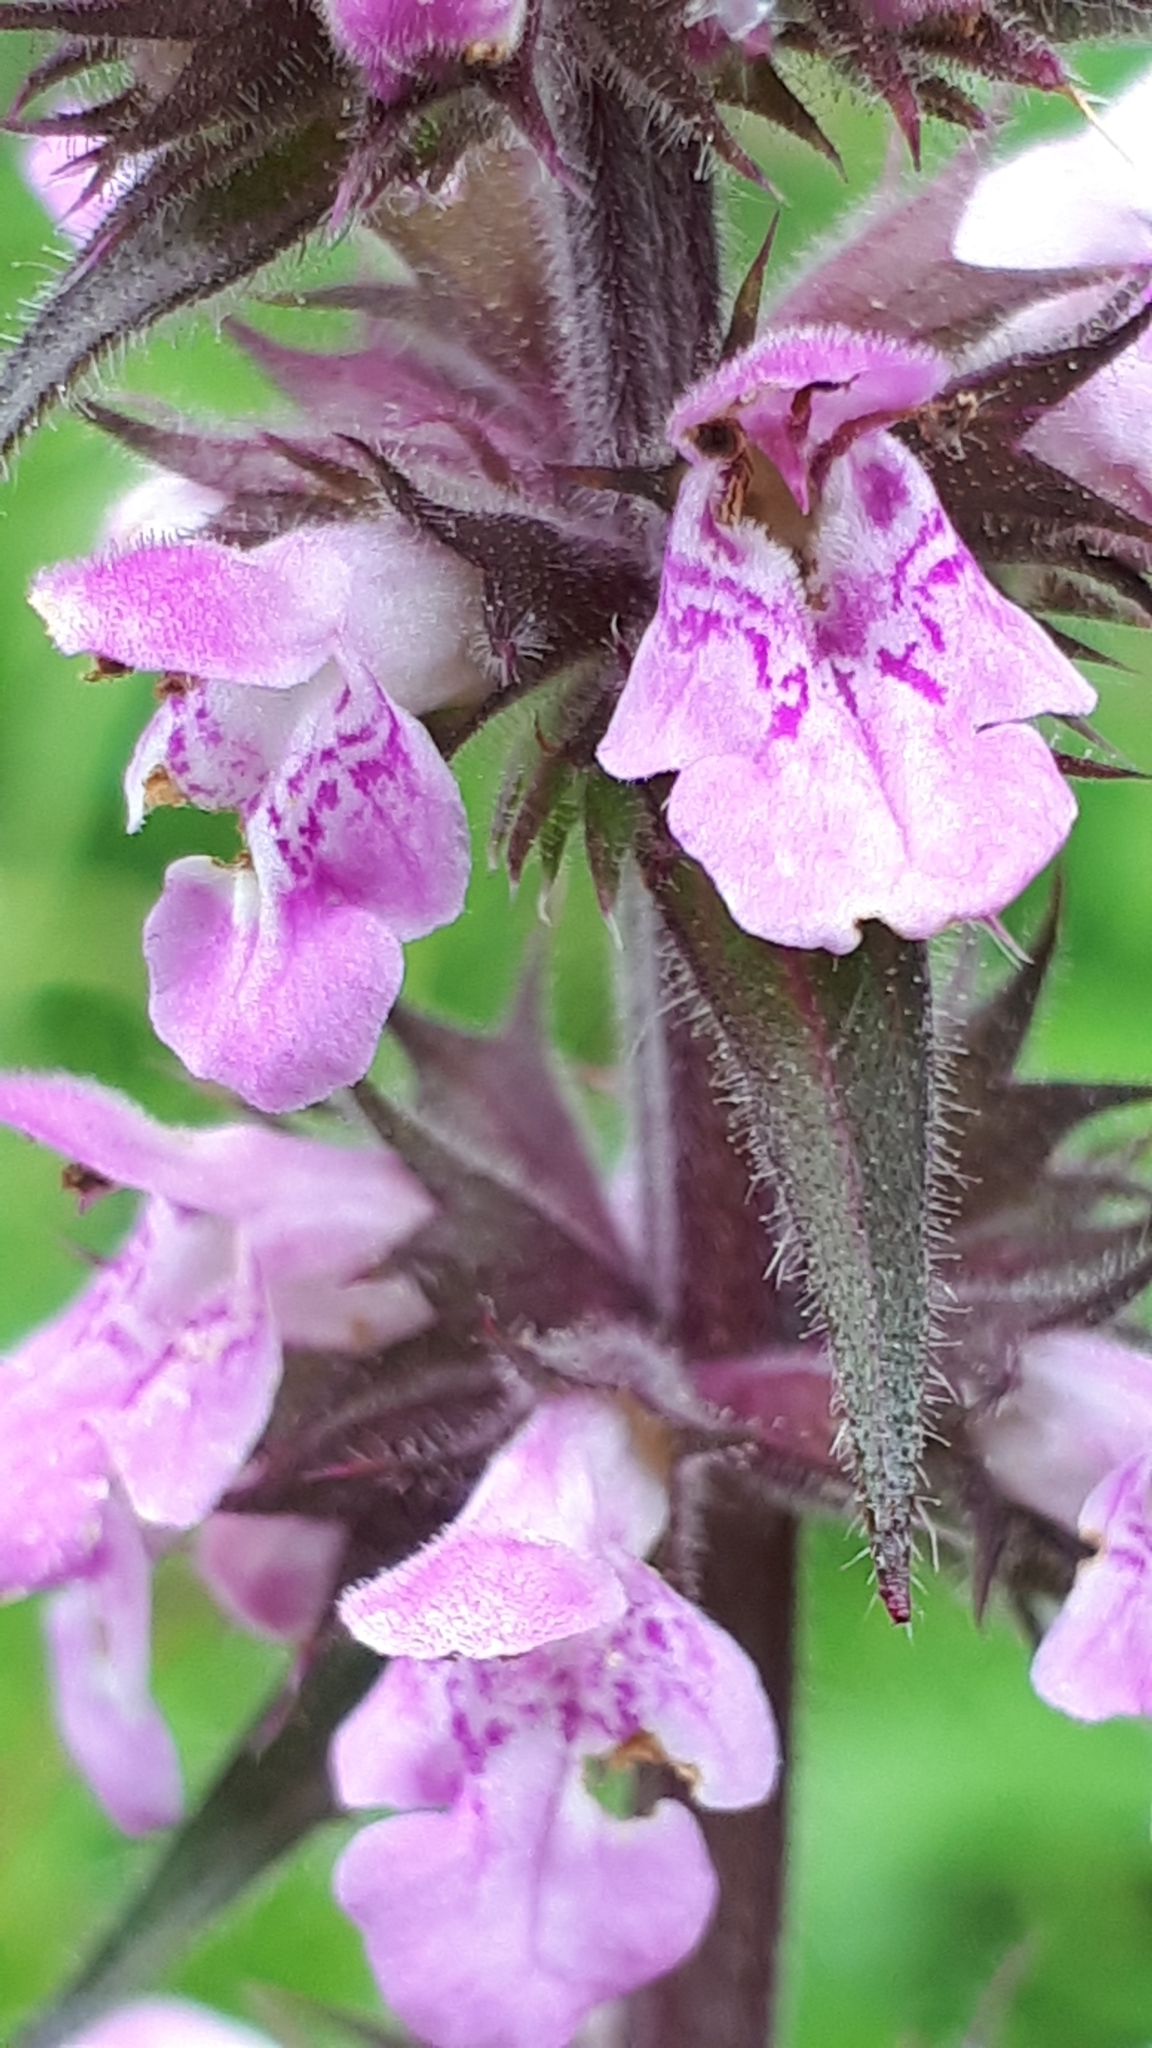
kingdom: Plantae
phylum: Tracheophyta
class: Magnoliopsida
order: Lamiales
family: Lamiaceae
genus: Stachys
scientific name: Stachys palustris
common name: Marsh woundwort
